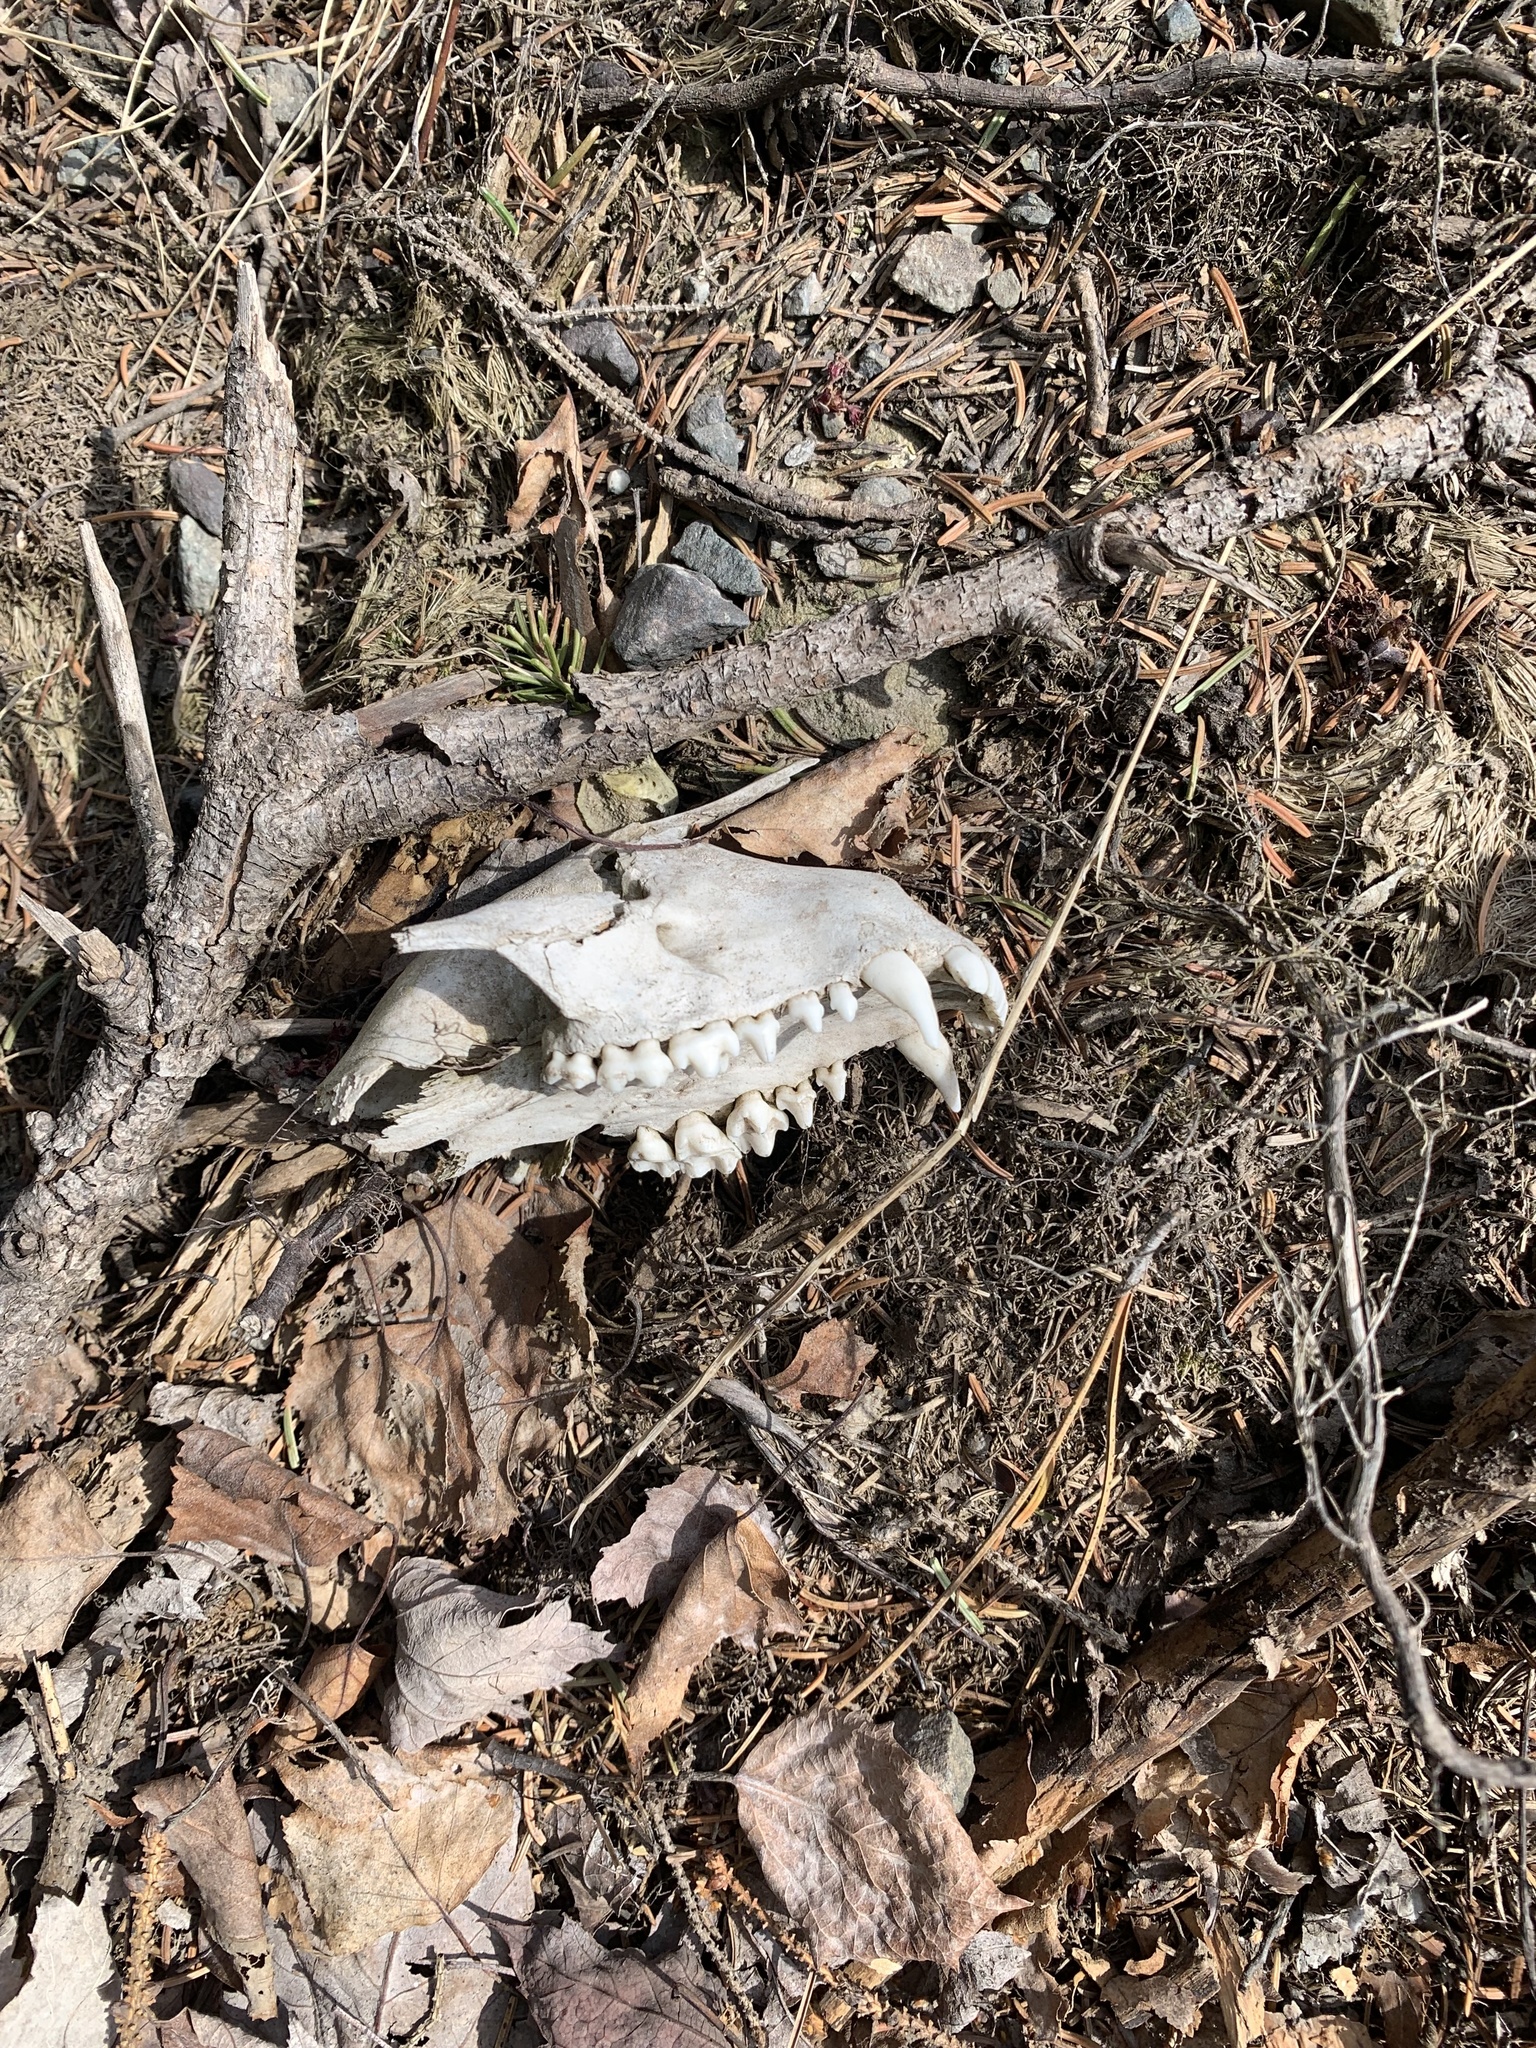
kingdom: Animalia
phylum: Chordata
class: Mammalia
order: Carnivora
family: Procyonidae
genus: Procyon
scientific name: Procyon lotor
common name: Raccoon
